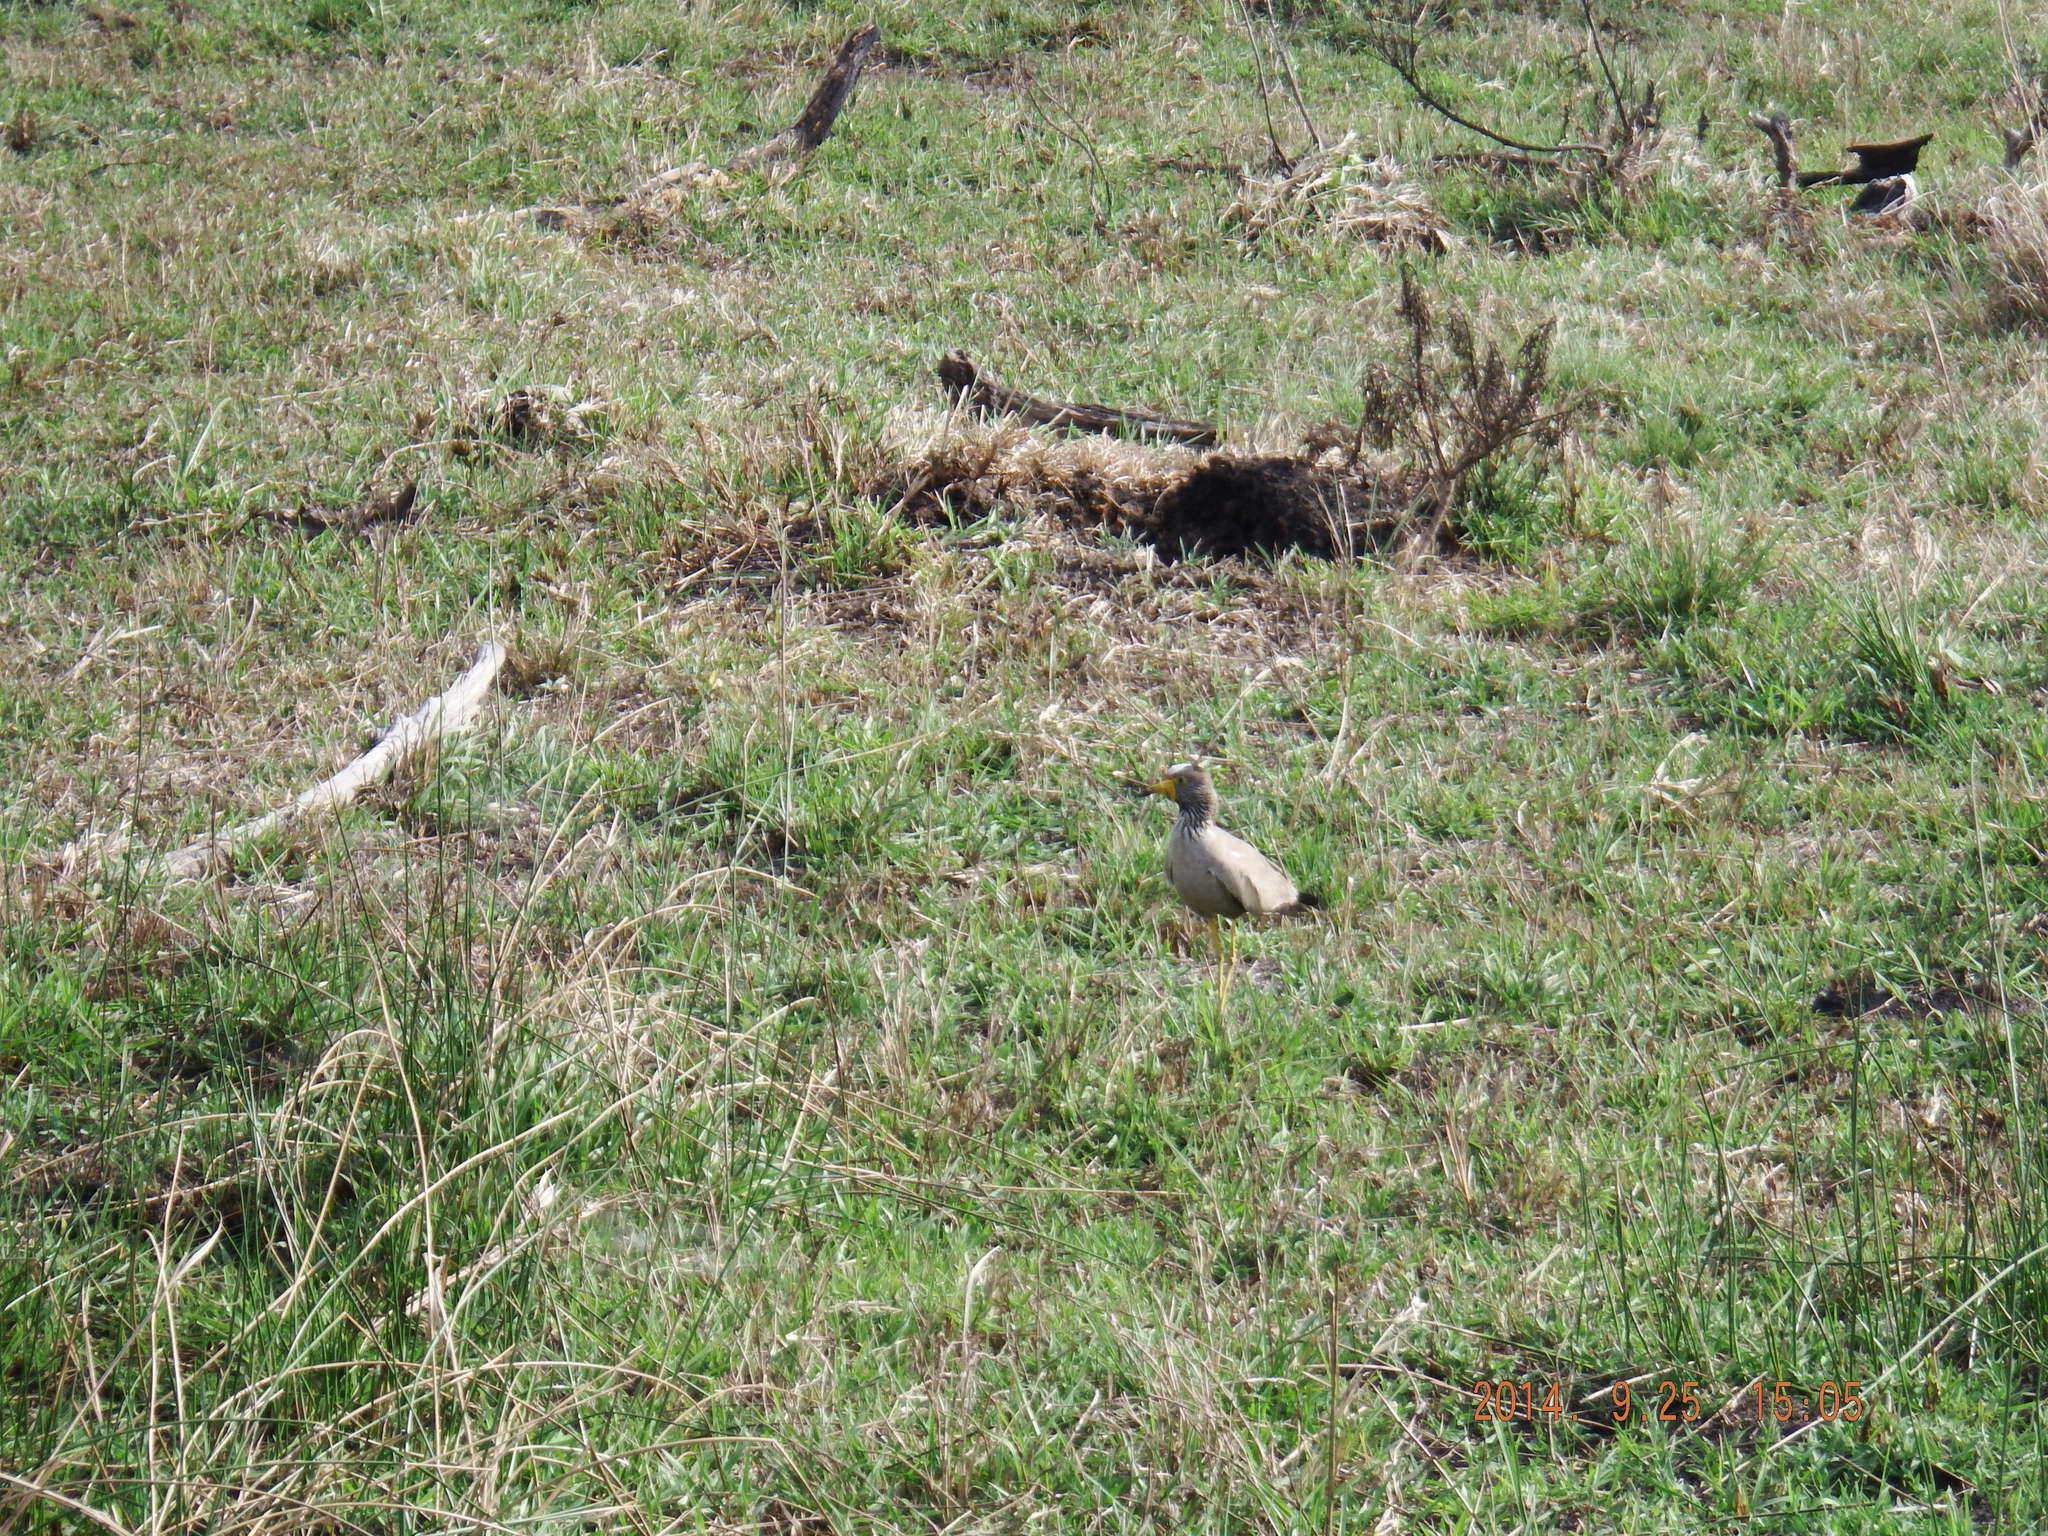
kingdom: Animalia
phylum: Chordata
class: Aves
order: Charadriiformes
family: Charadriidae
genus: Vanellus
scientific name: Vanellus senegallus
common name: African wattled lapwing
